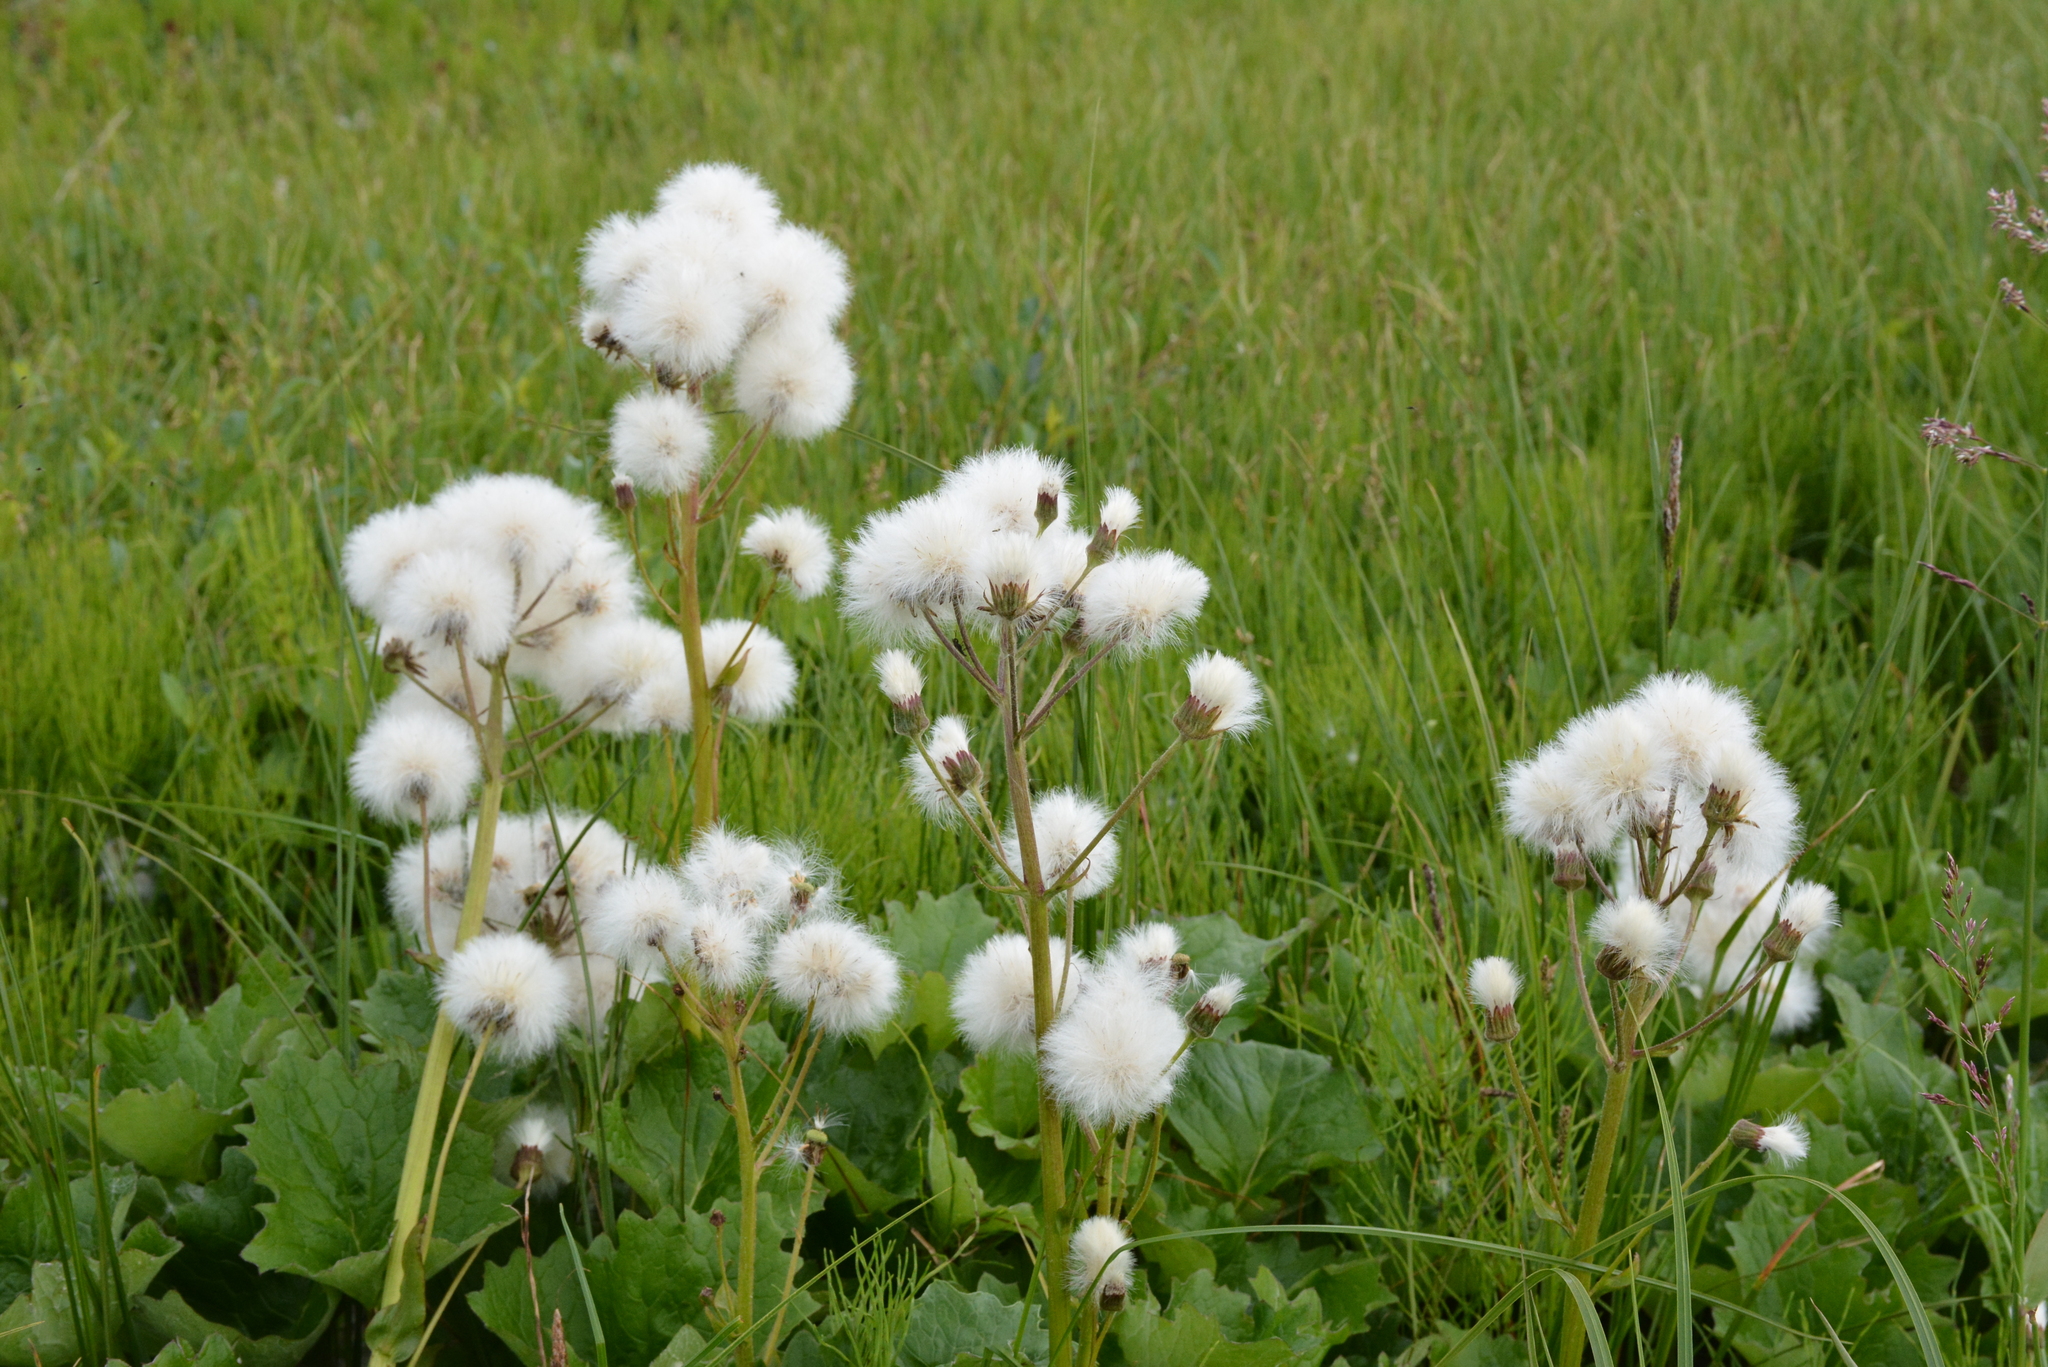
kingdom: Plantae
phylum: Tracheophyta
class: Magnoliopsida
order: Asterales
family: Asteraceae
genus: Petasites
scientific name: Petasites frigidus
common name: Arctic butterbur
